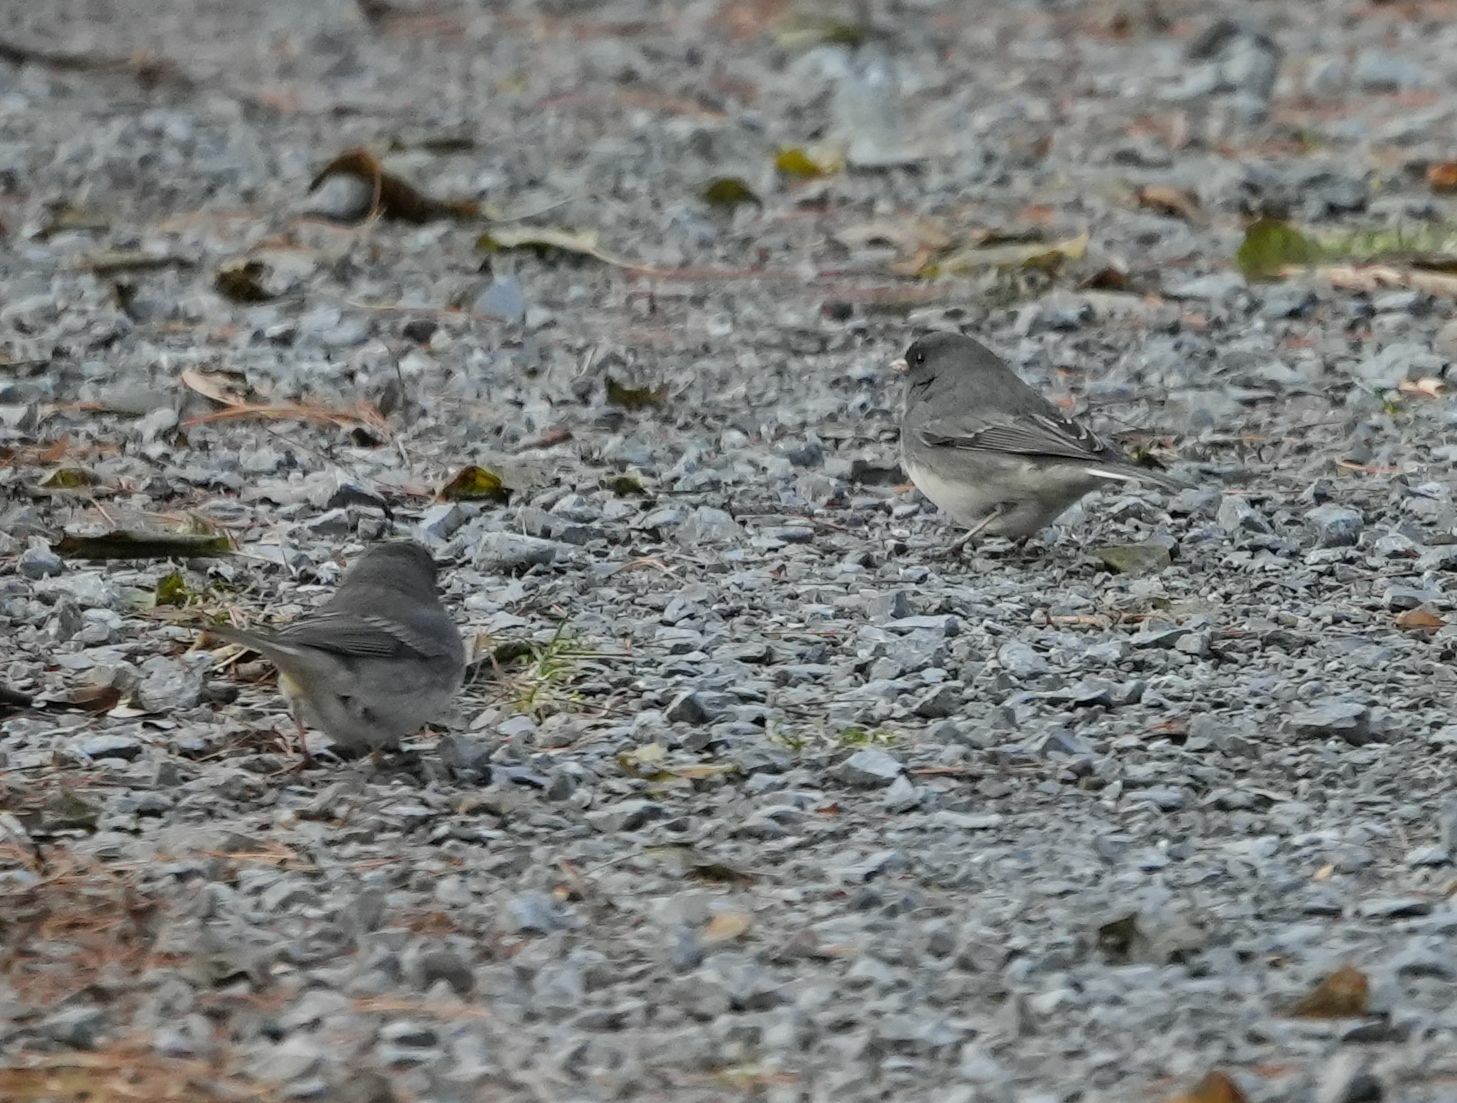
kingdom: Animalia
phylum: Chordata
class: Aves
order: Passeriformes
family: Passerellidae
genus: Junco
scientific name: Junco hyemalis
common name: Dark-eyed junco
